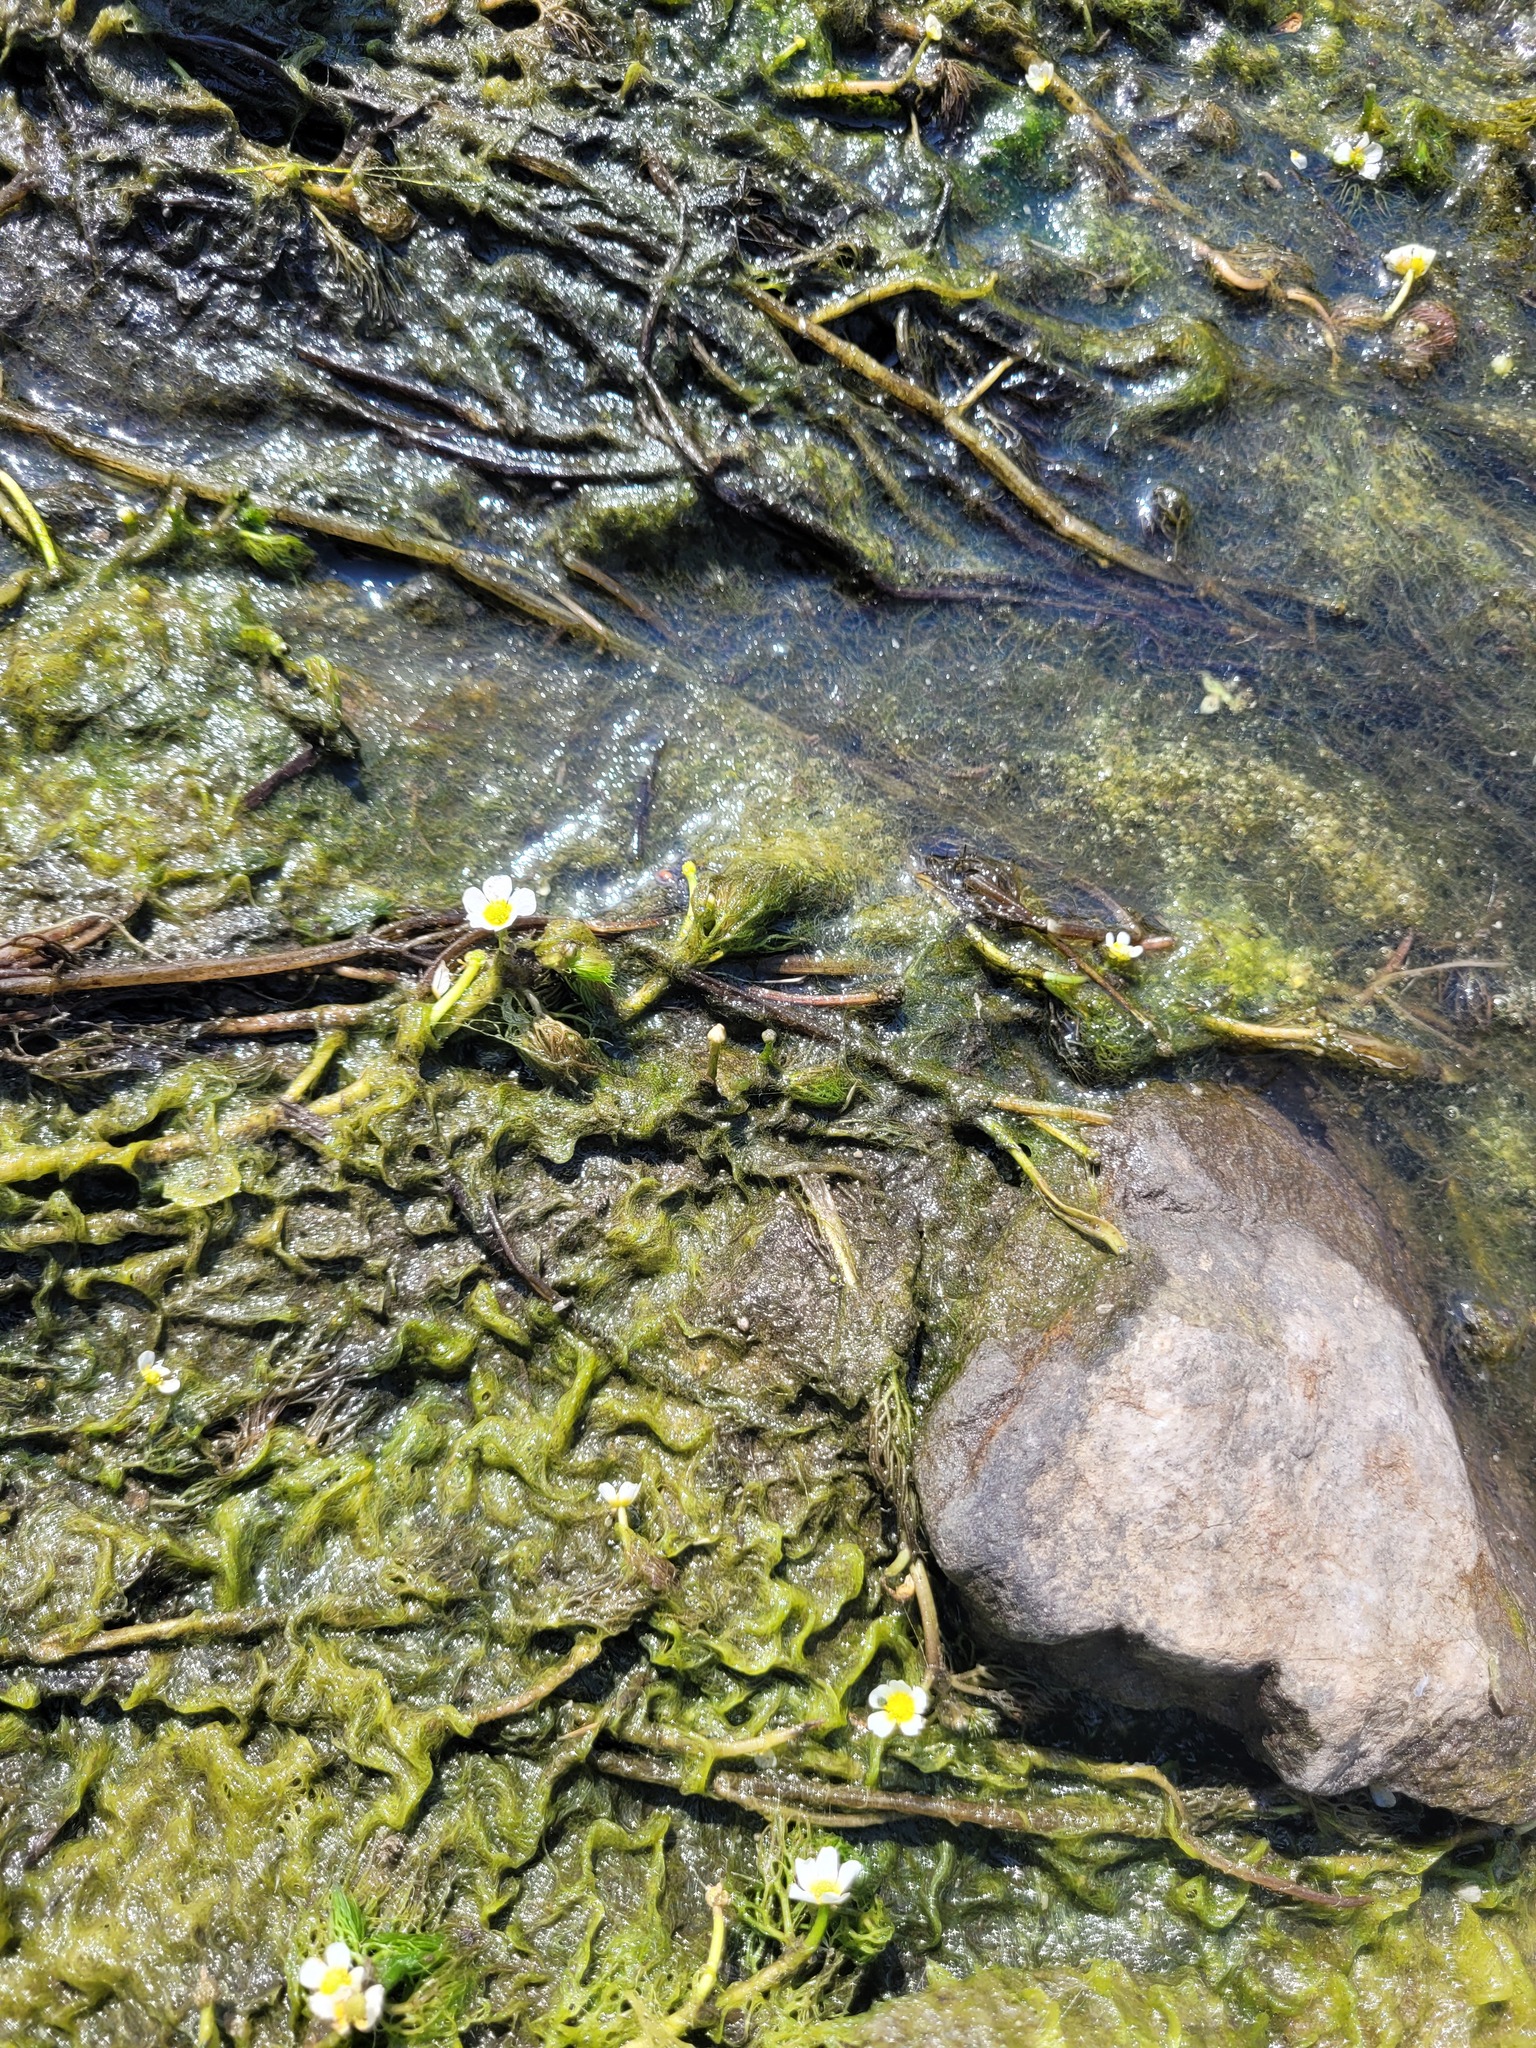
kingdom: Plantae
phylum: Tracheophyta
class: Magnoliopsida
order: Ranunculales
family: Ranunculaceae
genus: Ranunculus
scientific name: Ranunculus rionii
